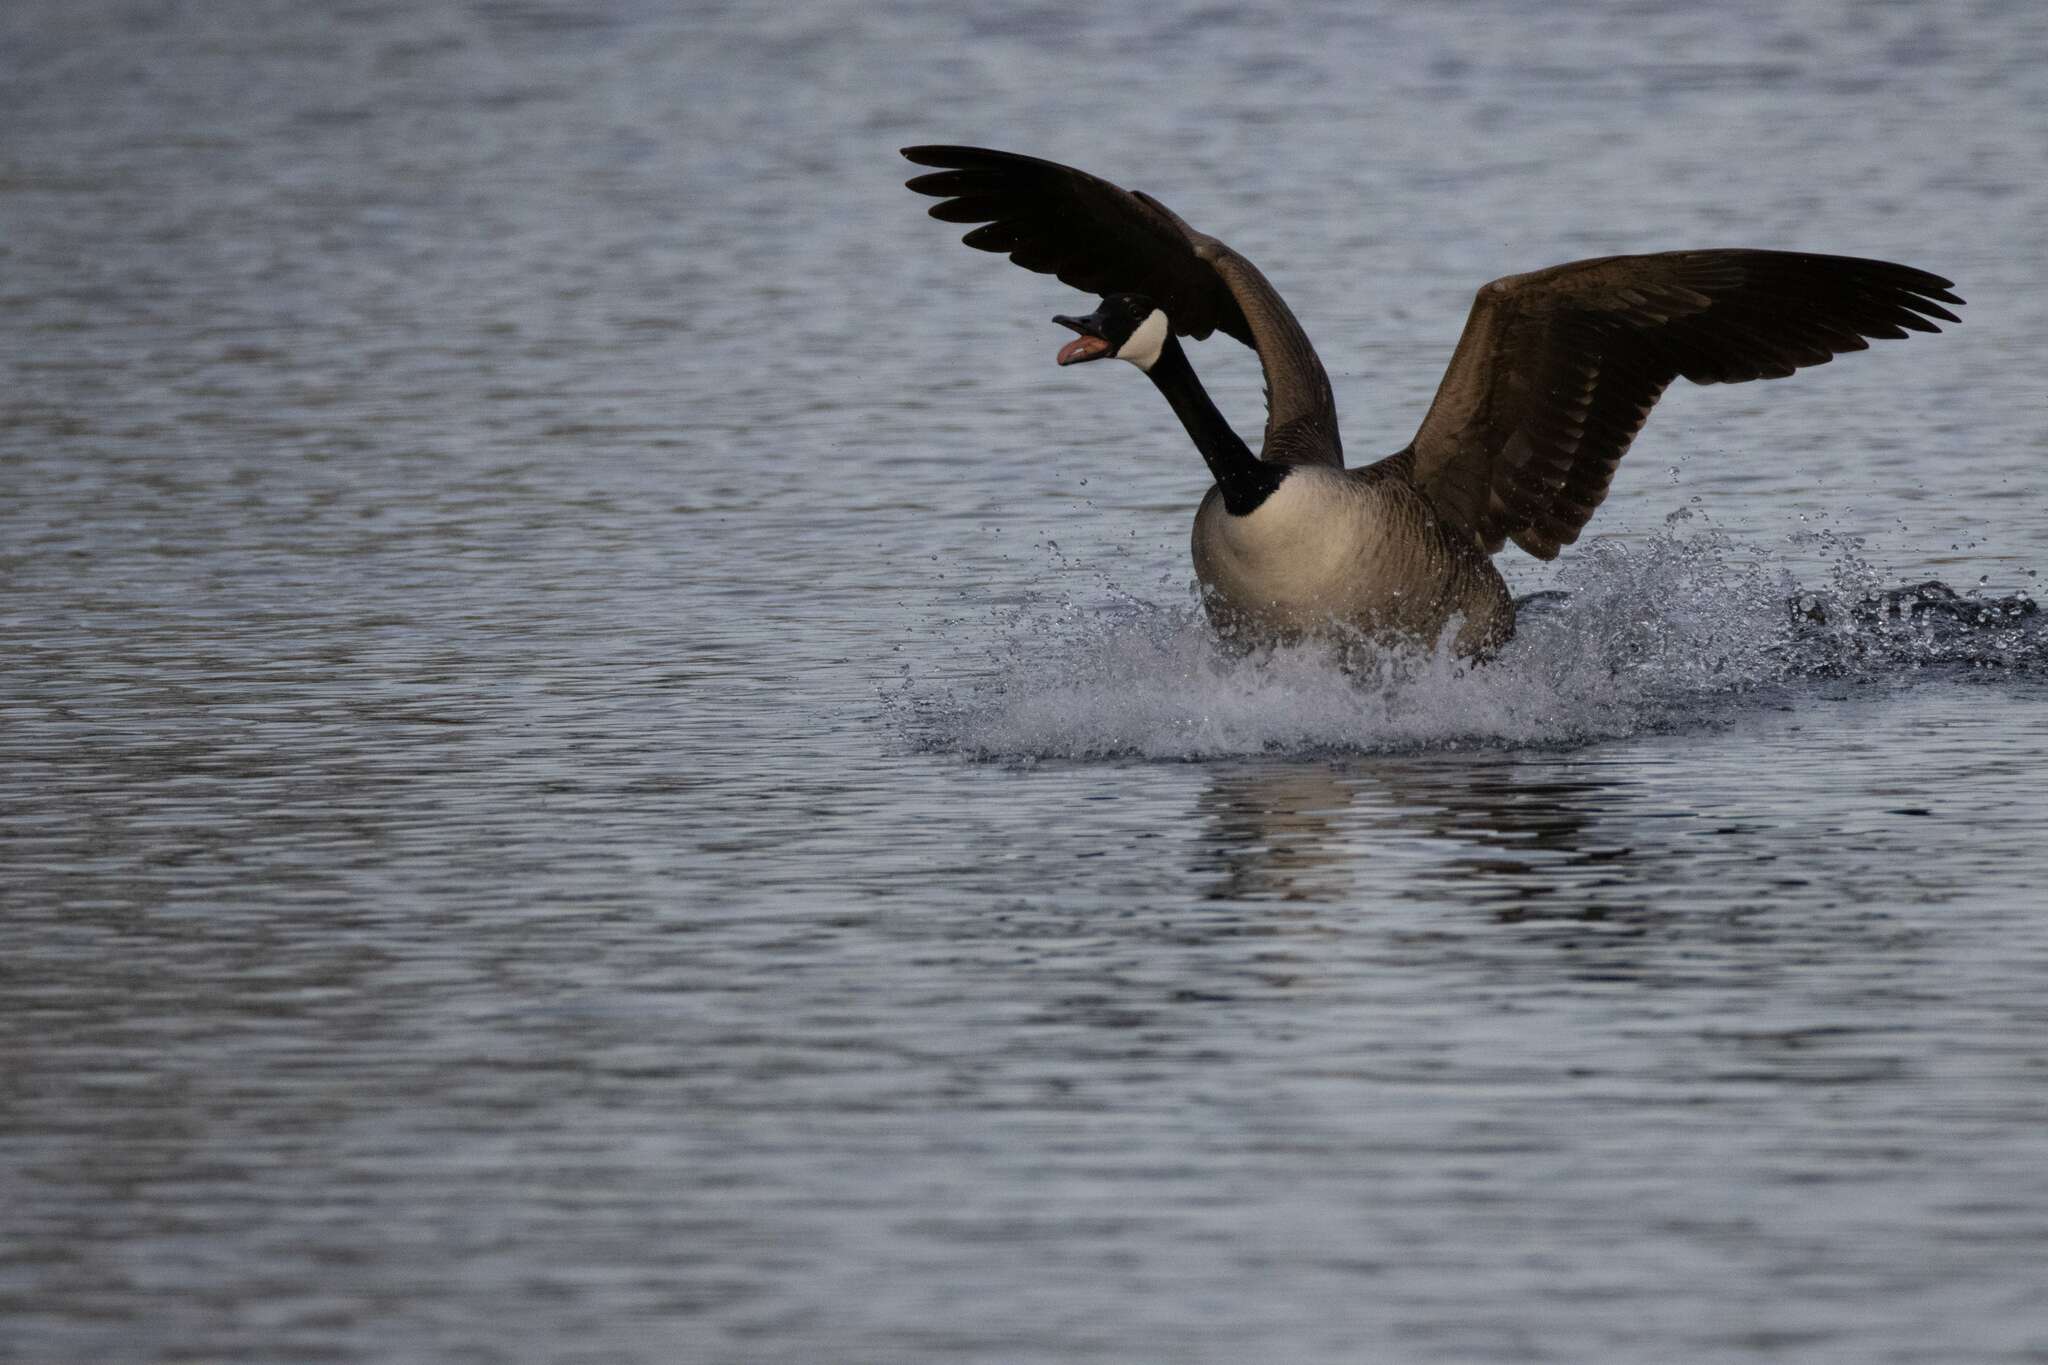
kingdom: Animalia
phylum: Chordata
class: Aves
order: Anseriformes
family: Anatidae
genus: Branta
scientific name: Branta canadensis
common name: Canada goose
